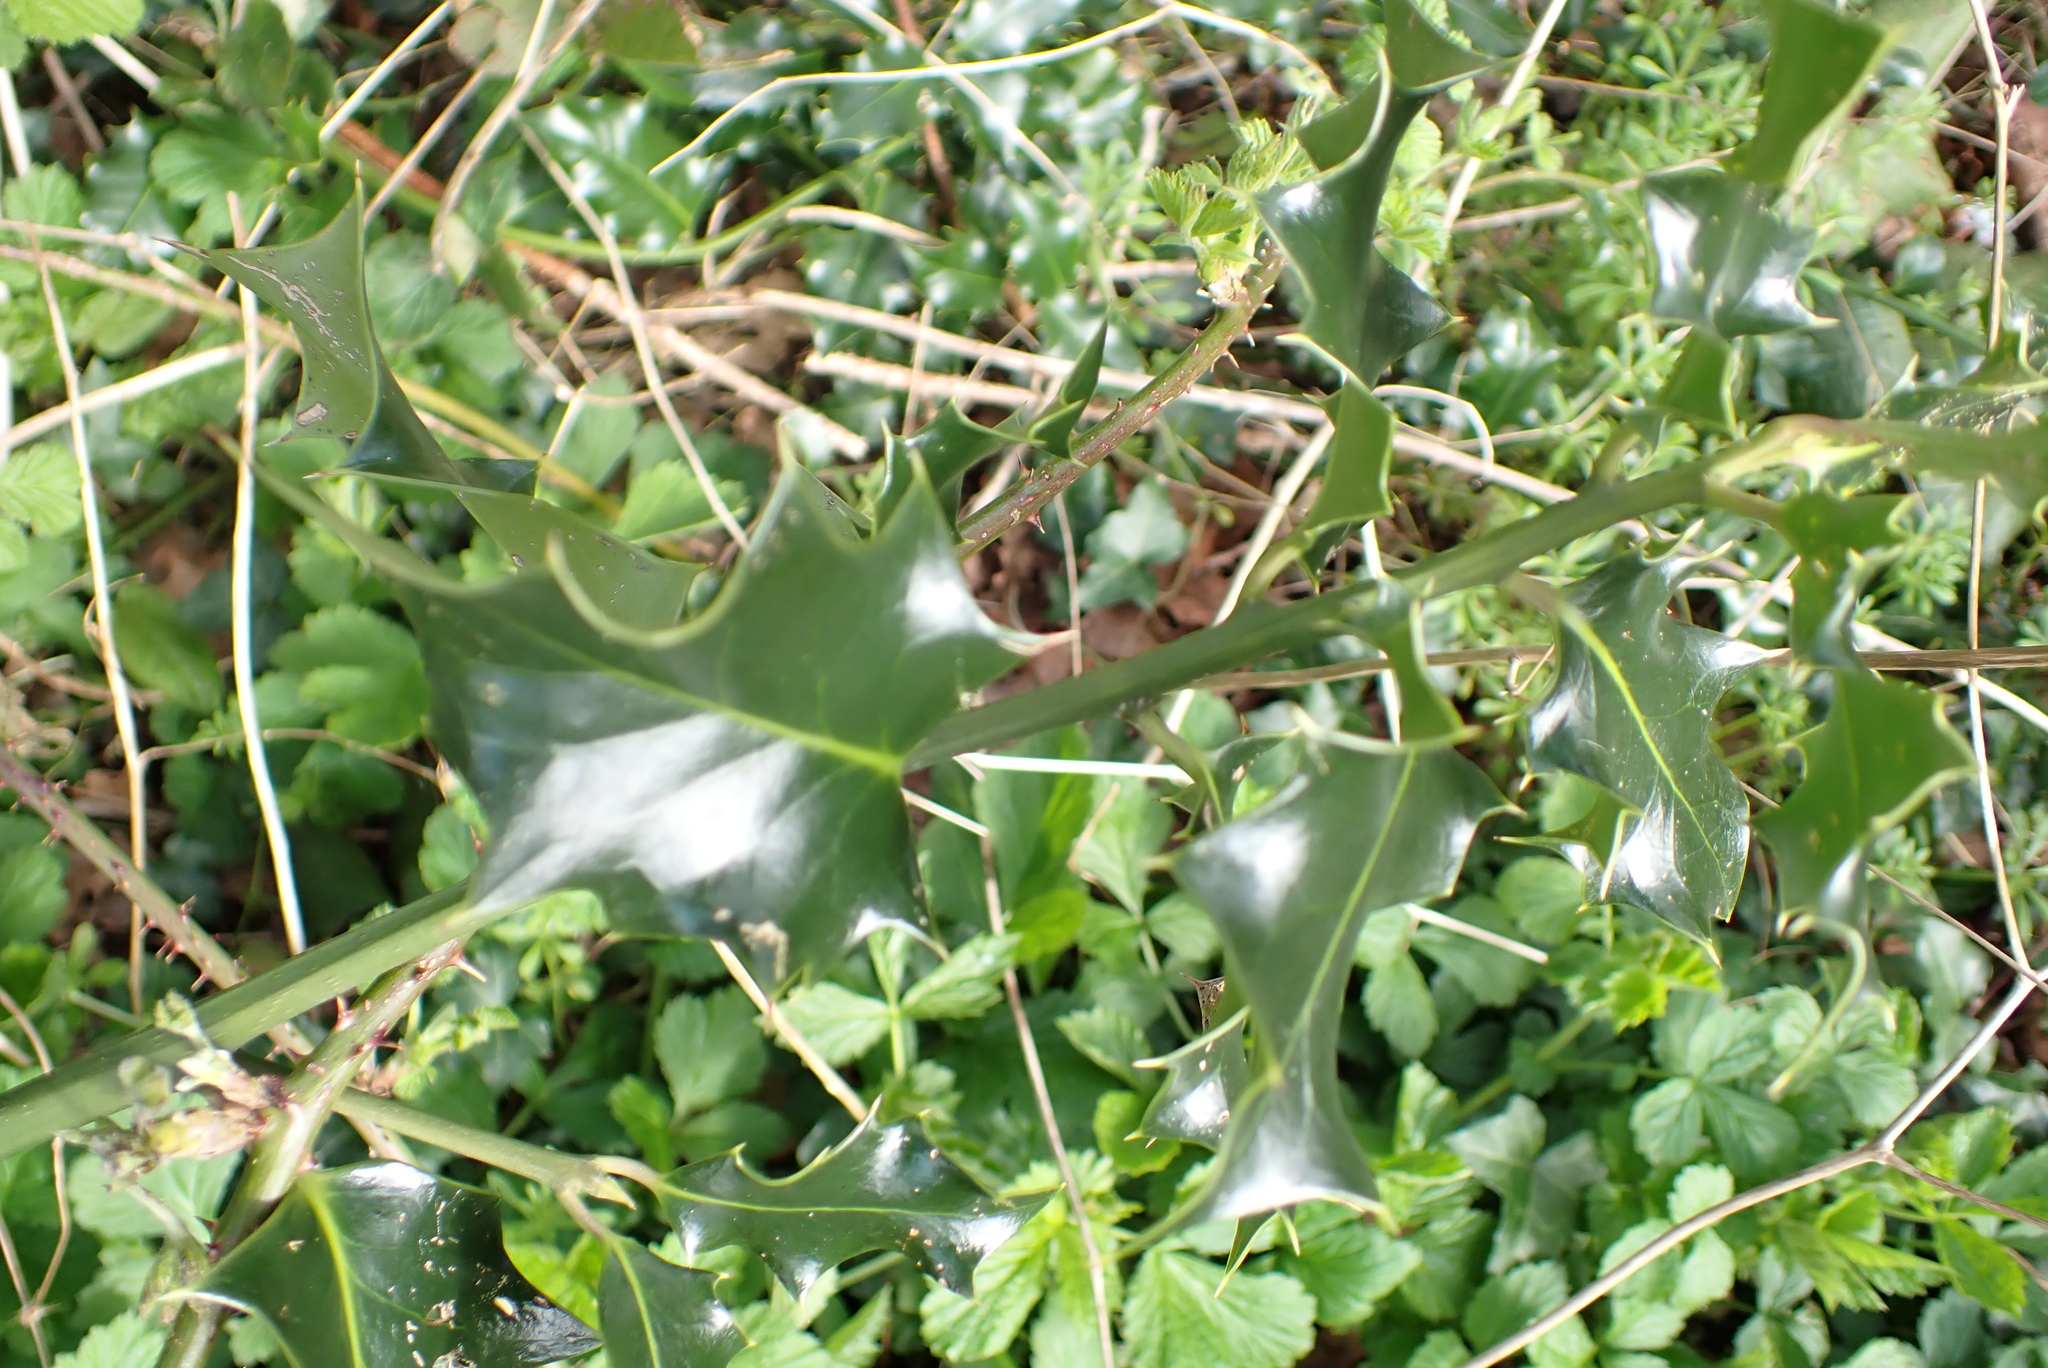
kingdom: Plantae
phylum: Tracheophyta
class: Magnoliopsida
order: Aquifoliales
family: Aquifoliaceae
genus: Ilex
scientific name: Ilex aquifolium
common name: English holly
